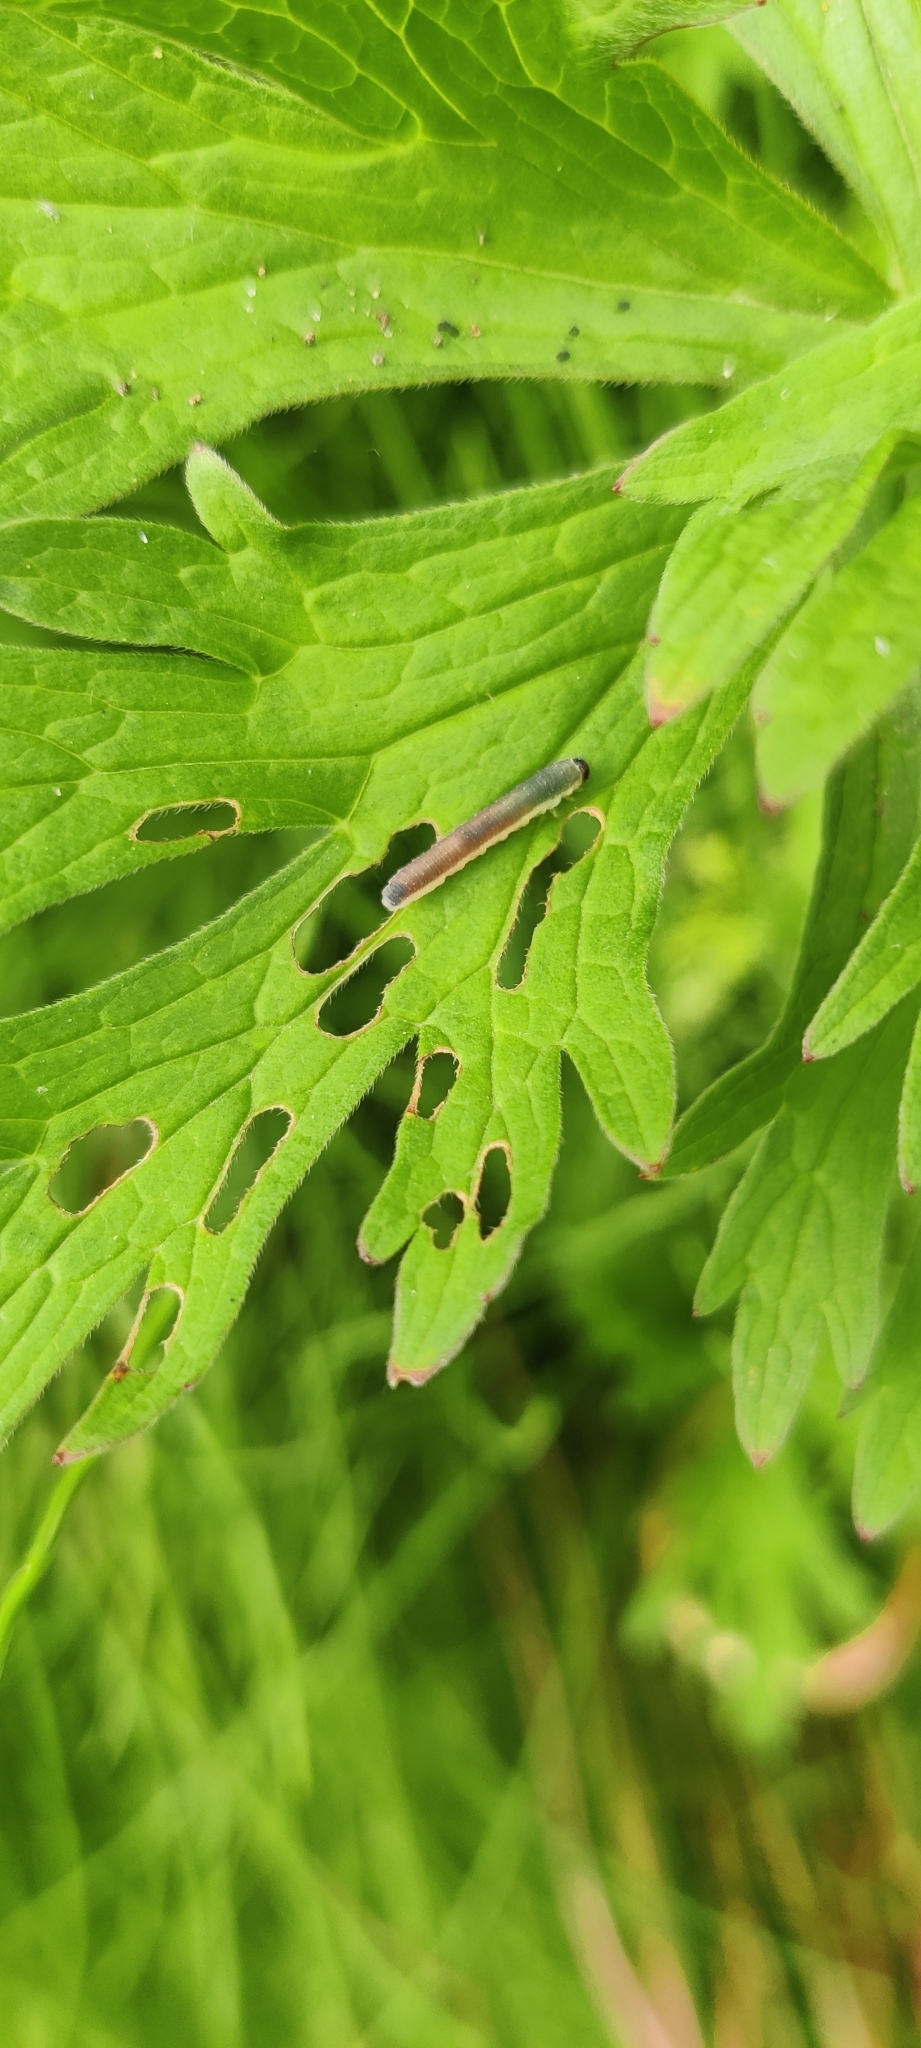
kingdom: Animalia
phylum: Arthropoda
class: Insecta
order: Hymenoptera
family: Tenthredinidae
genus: Ametastegia
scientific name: Ametastegia carpini
